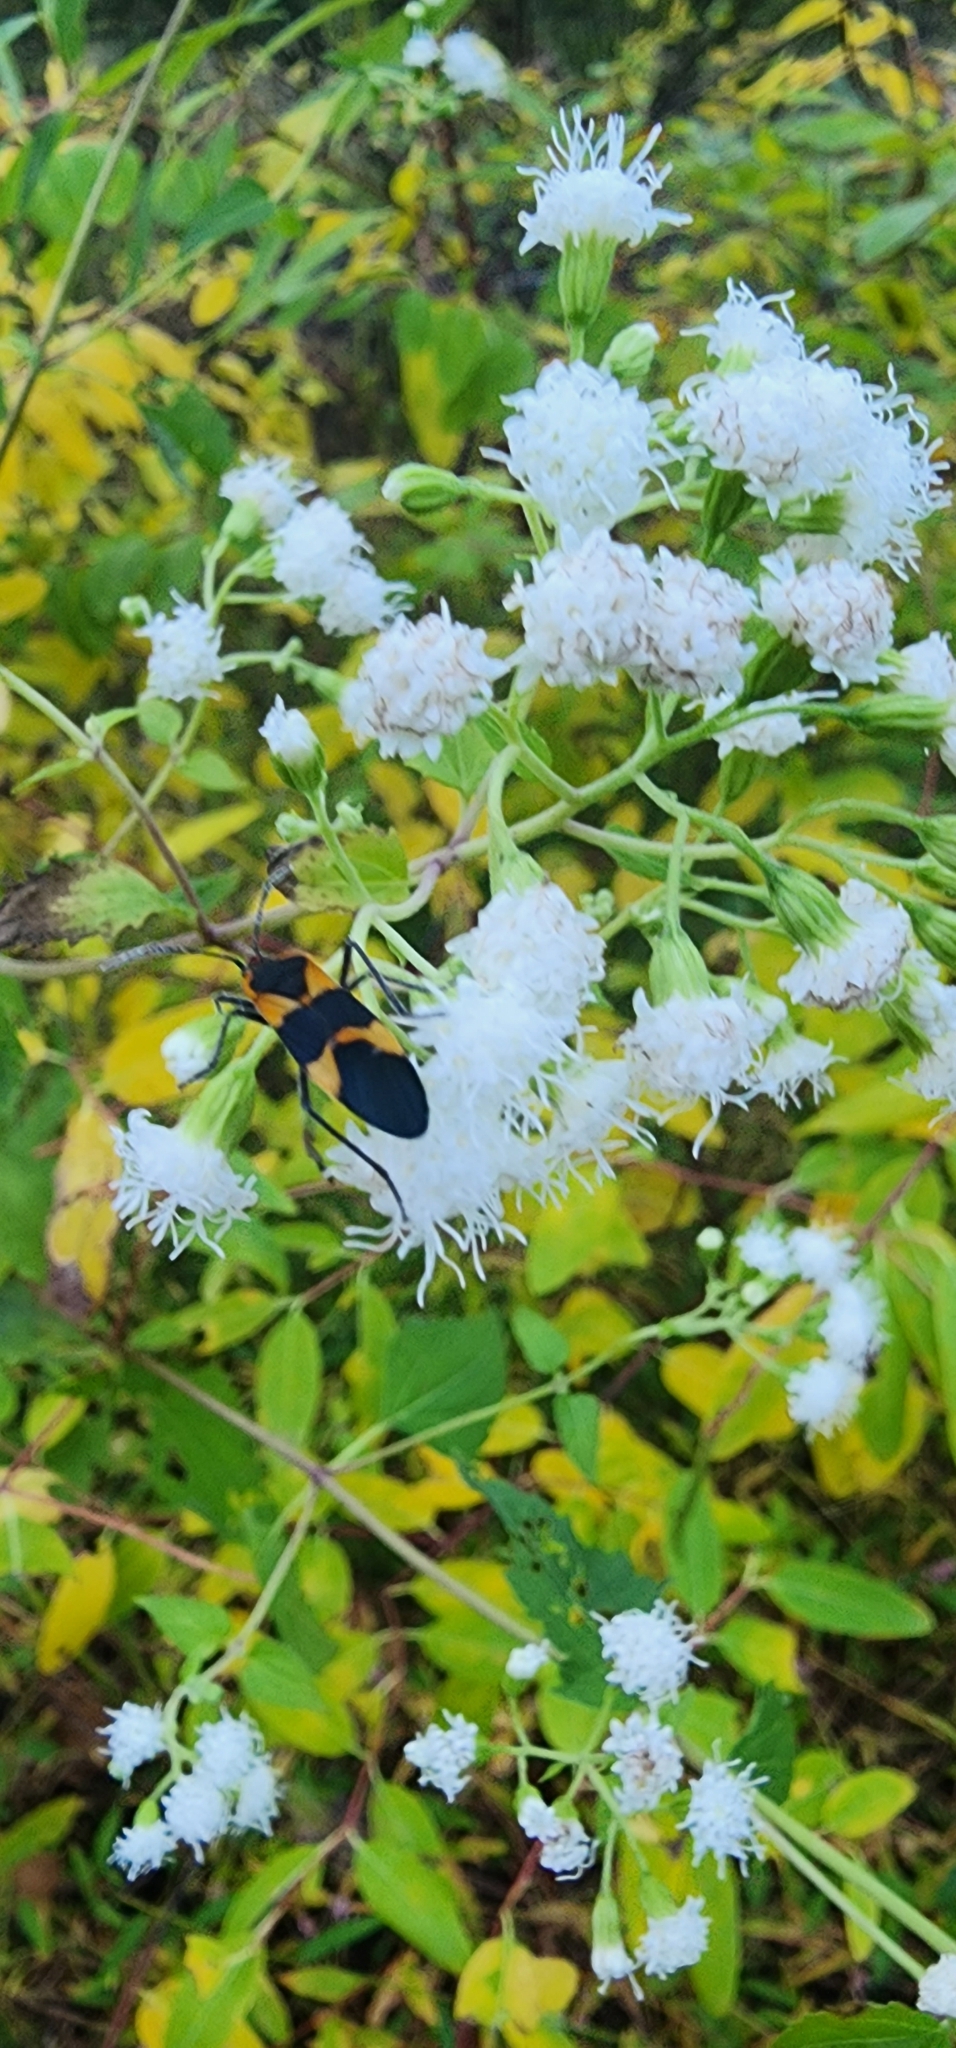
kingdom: Animalia
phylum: Arthropoda
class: Insecta
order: Hemiptera
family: Lygaeidae
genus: Oncopeltus
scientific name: Oncopeltus fasciatus
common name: Large milkweed bug
